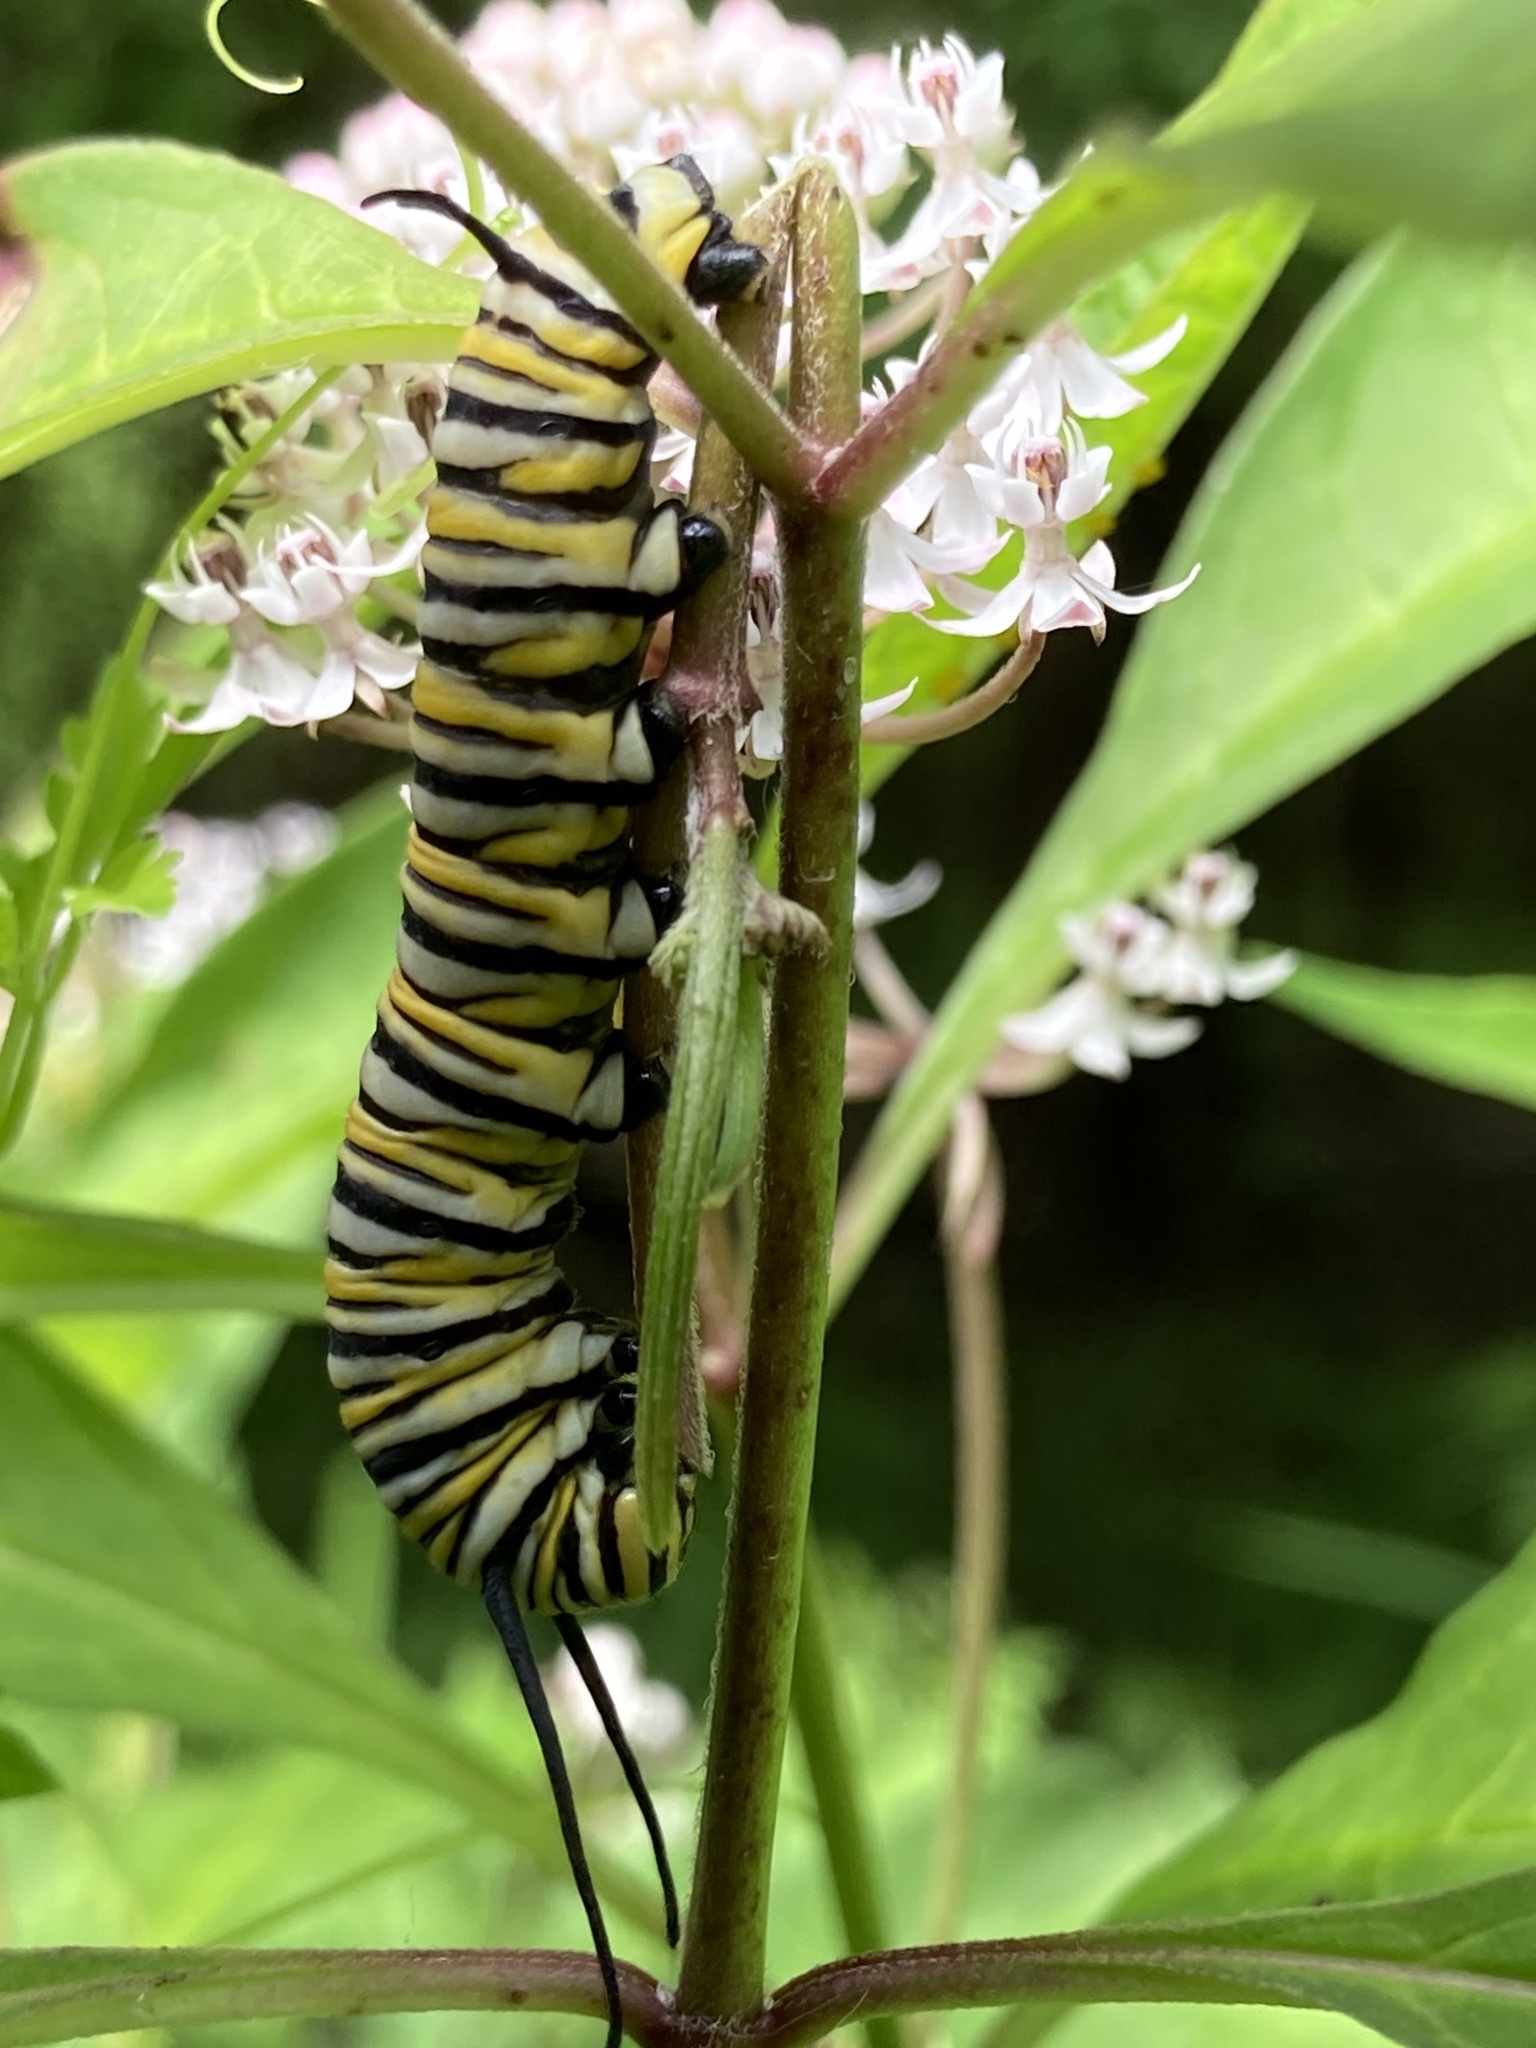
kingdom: Animalia
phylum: Arthropoda
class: Insecta
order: Lepidoptera
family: Nymphalidae
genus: Danaus
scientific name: Danaus plexippus
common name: Monarch
